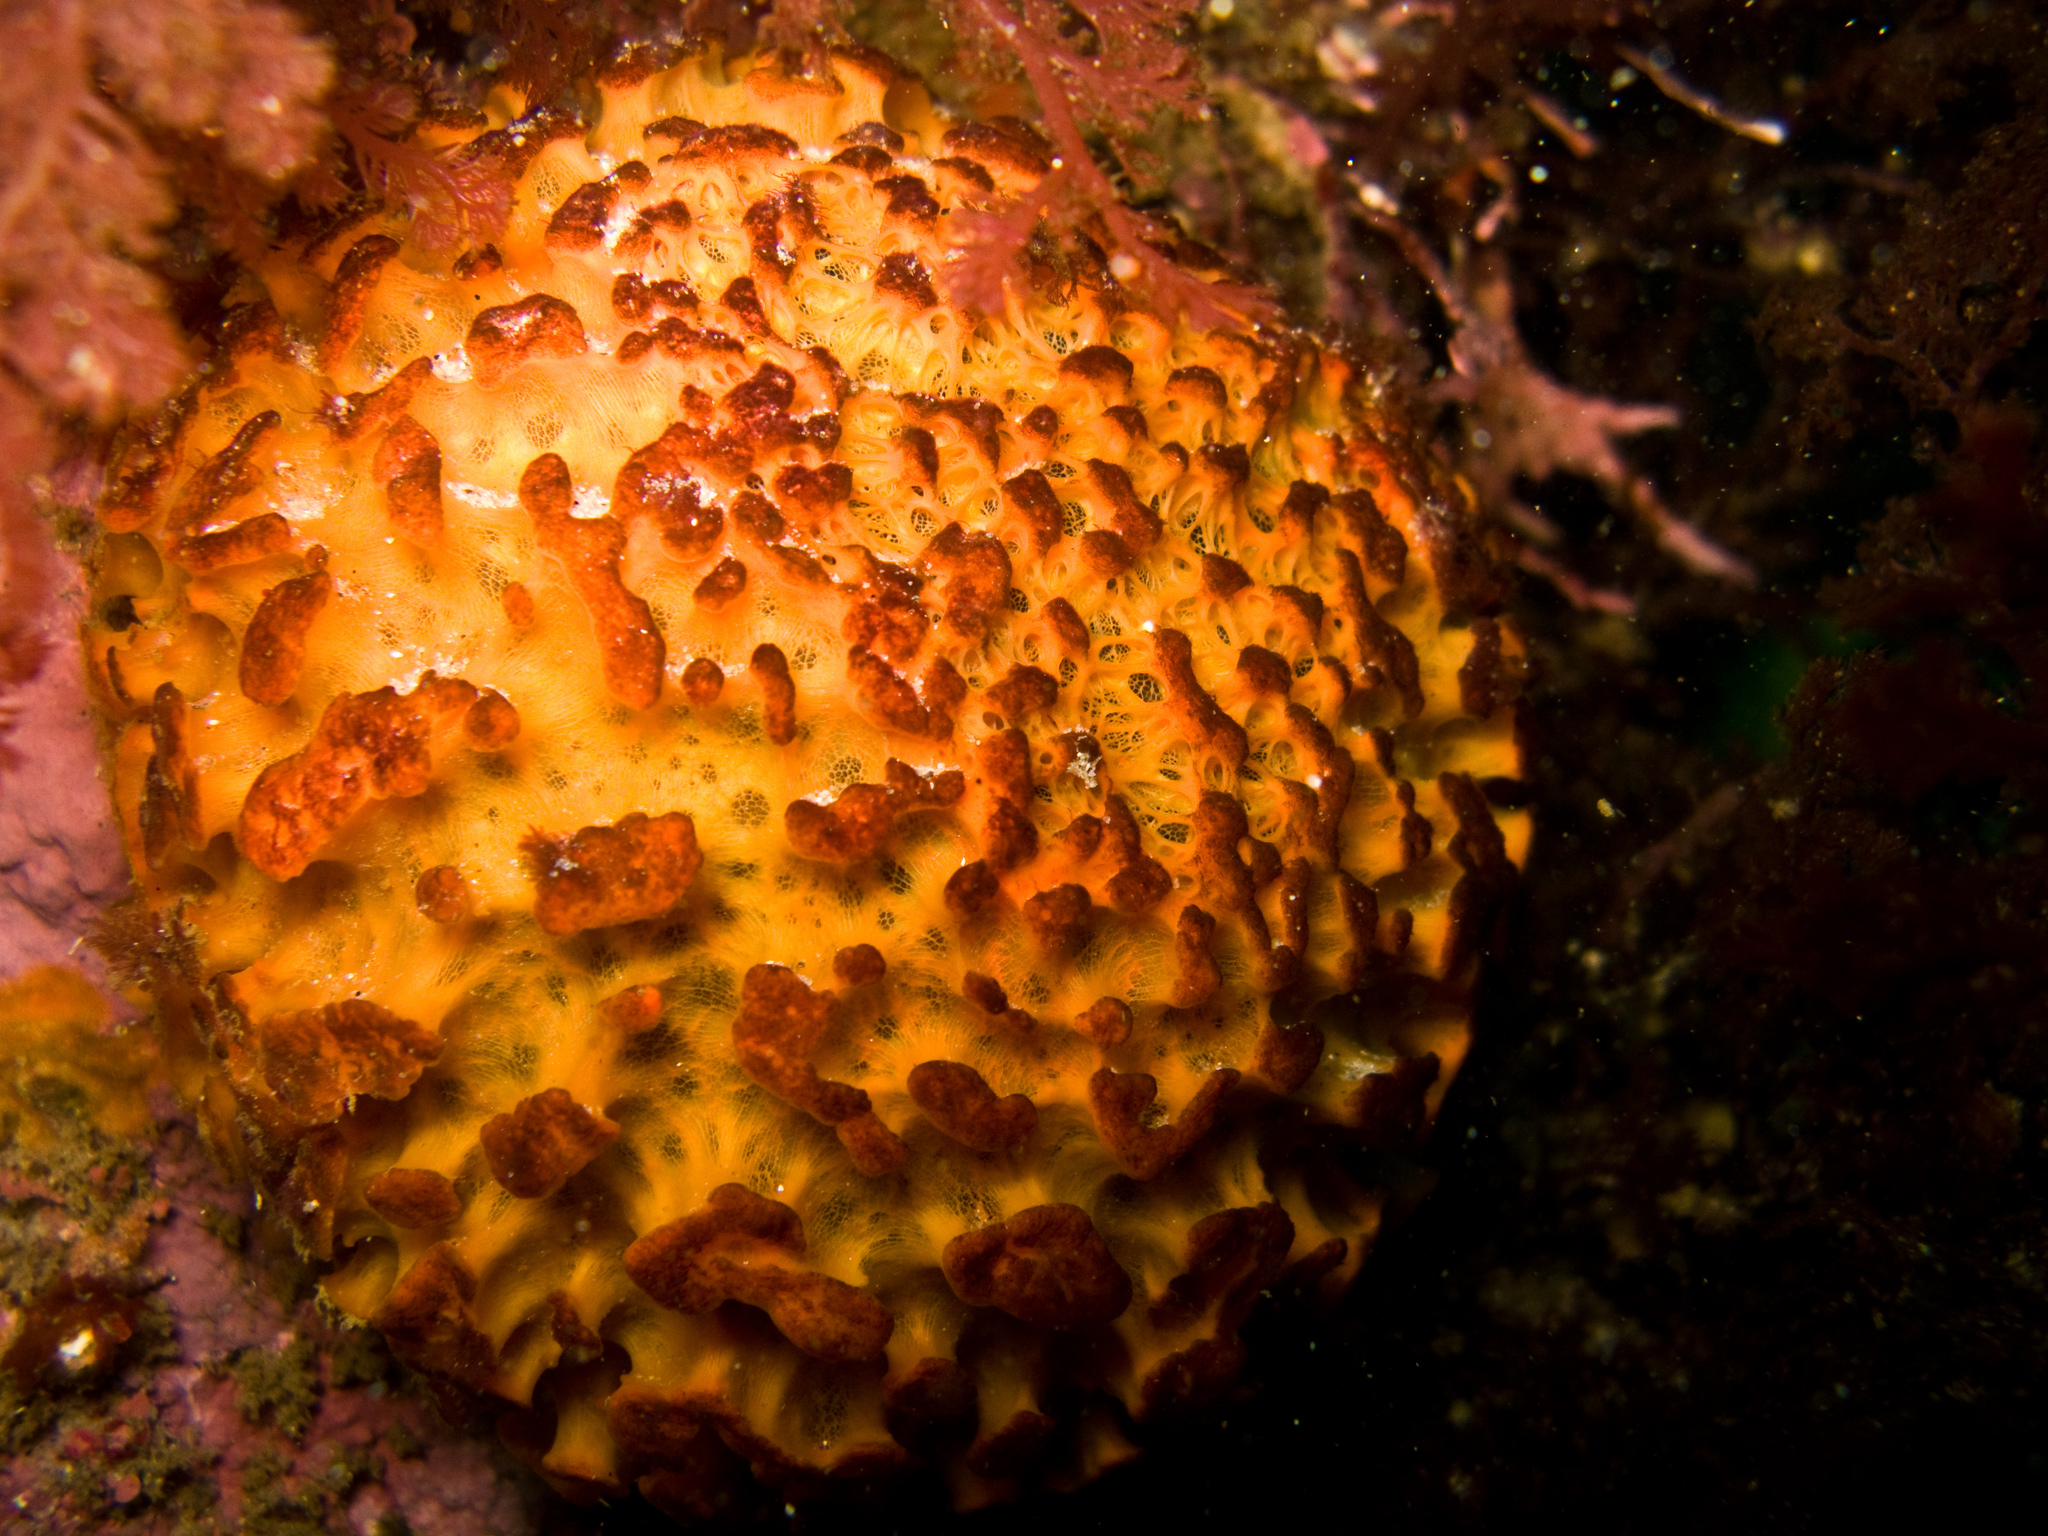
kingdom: Animalia
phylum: Porifera
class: Demospongiae
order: Tethyida
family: Tethyidae
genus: Tethya
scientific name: Tethya californiana
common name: Orange rough ball horny sponge
